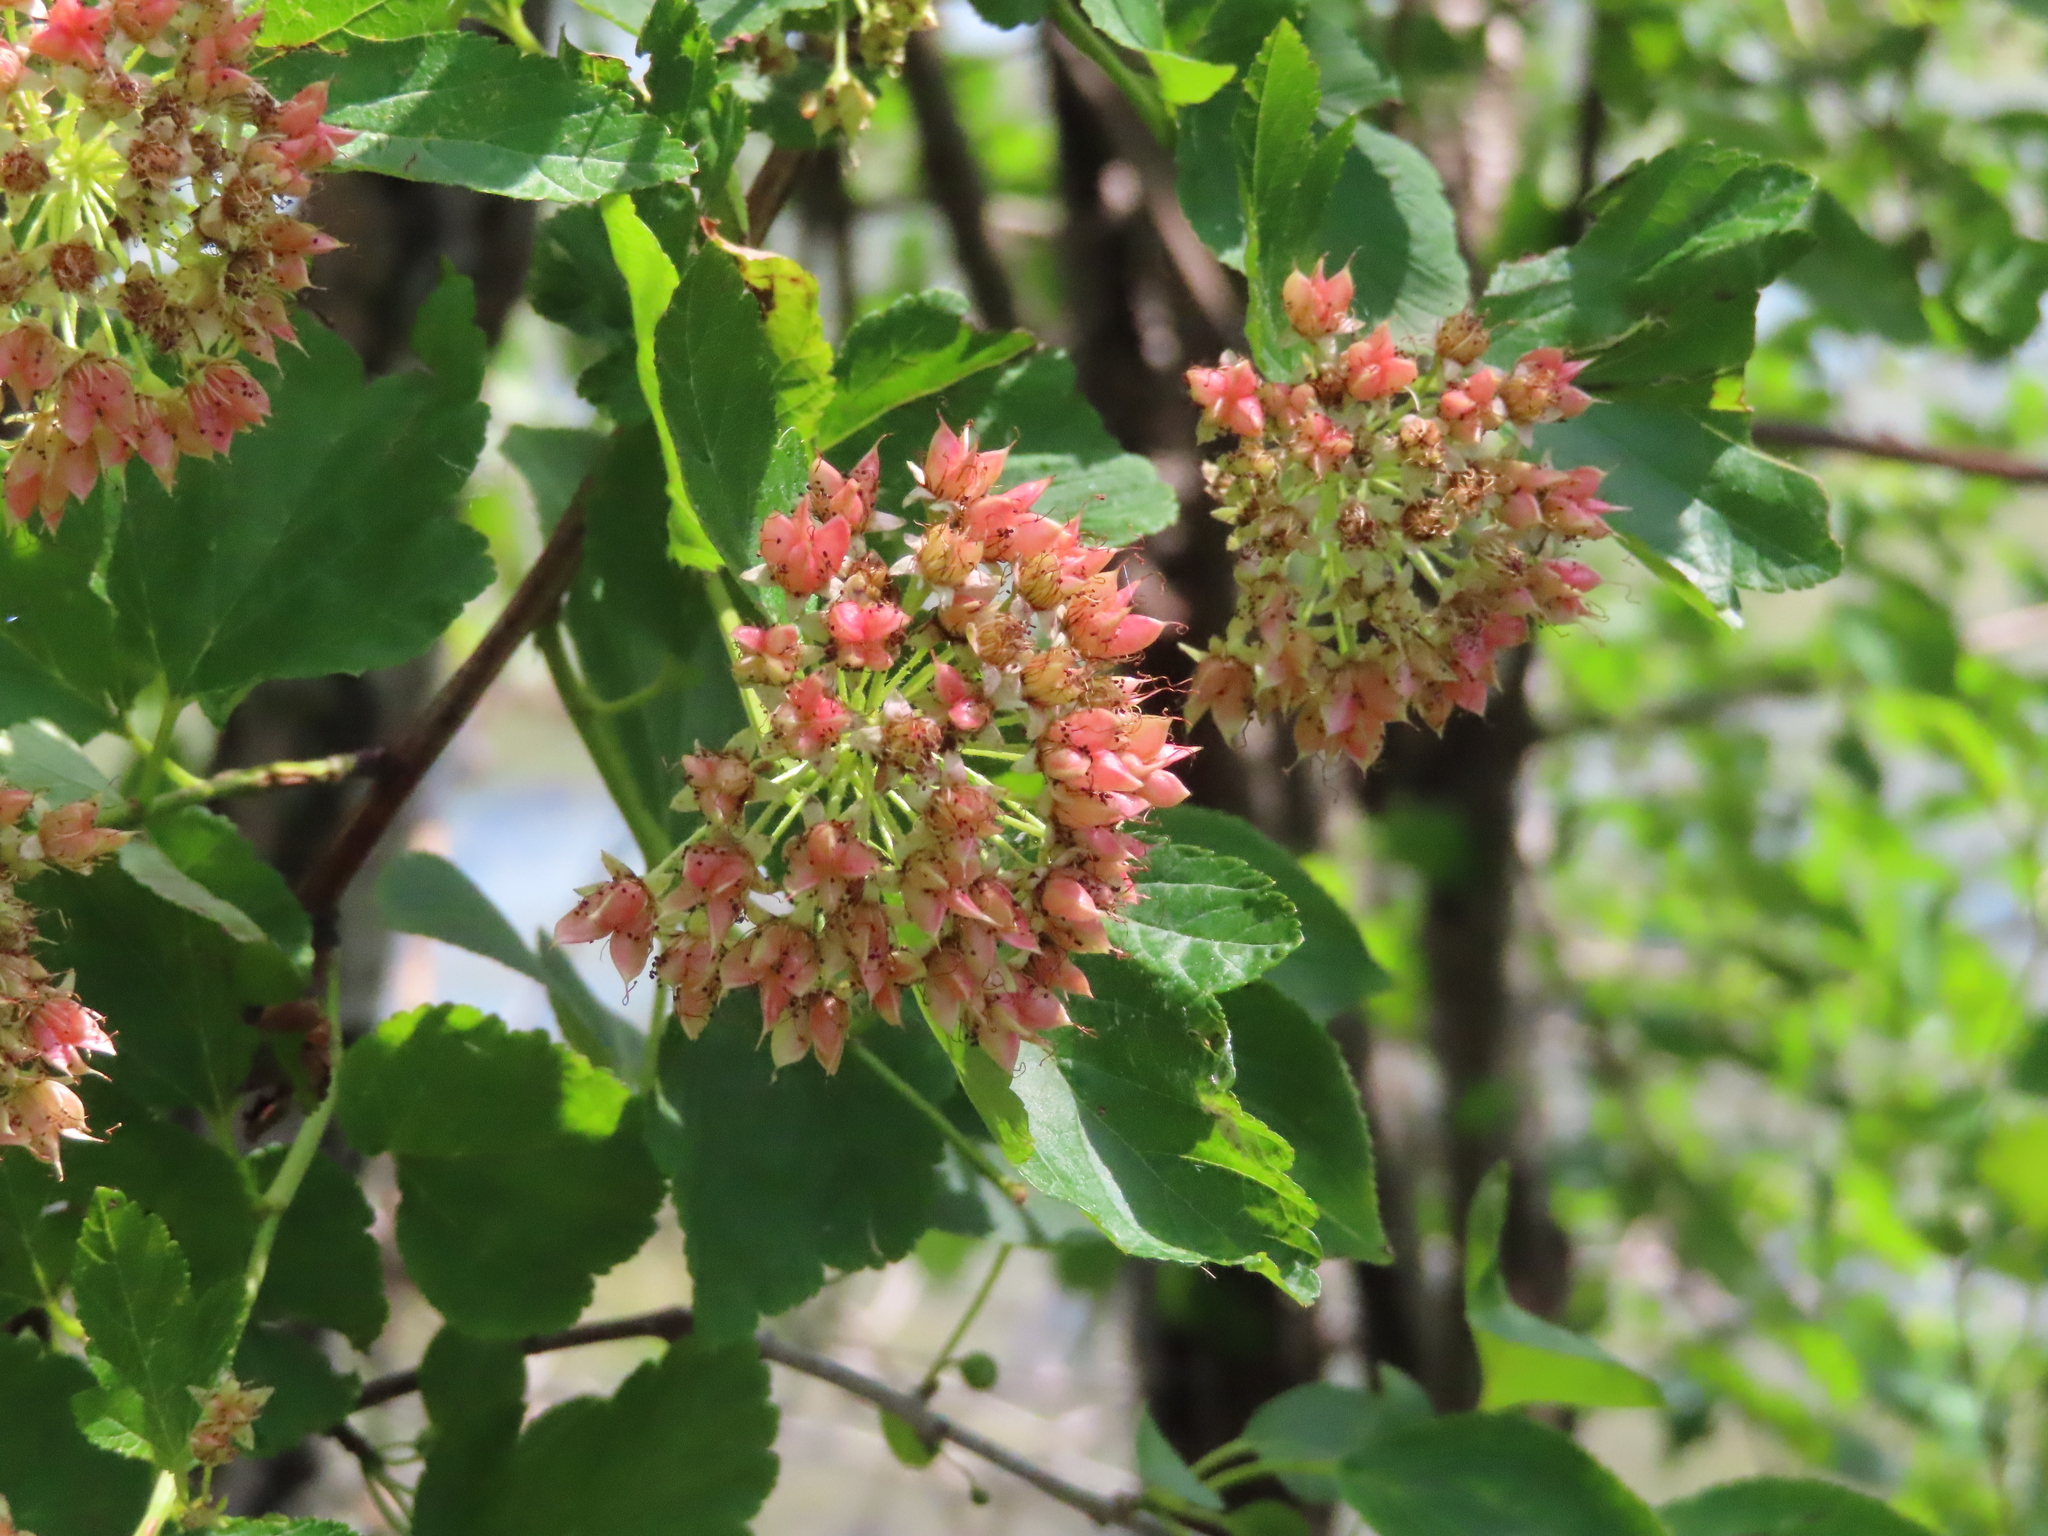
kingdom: Plantae
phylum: Tracheophyta
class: Magnoliopsida
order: Rosales
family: Rosaceae
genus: Physocarpus
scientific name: Physocarpus opulifolius
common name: Ninebark
